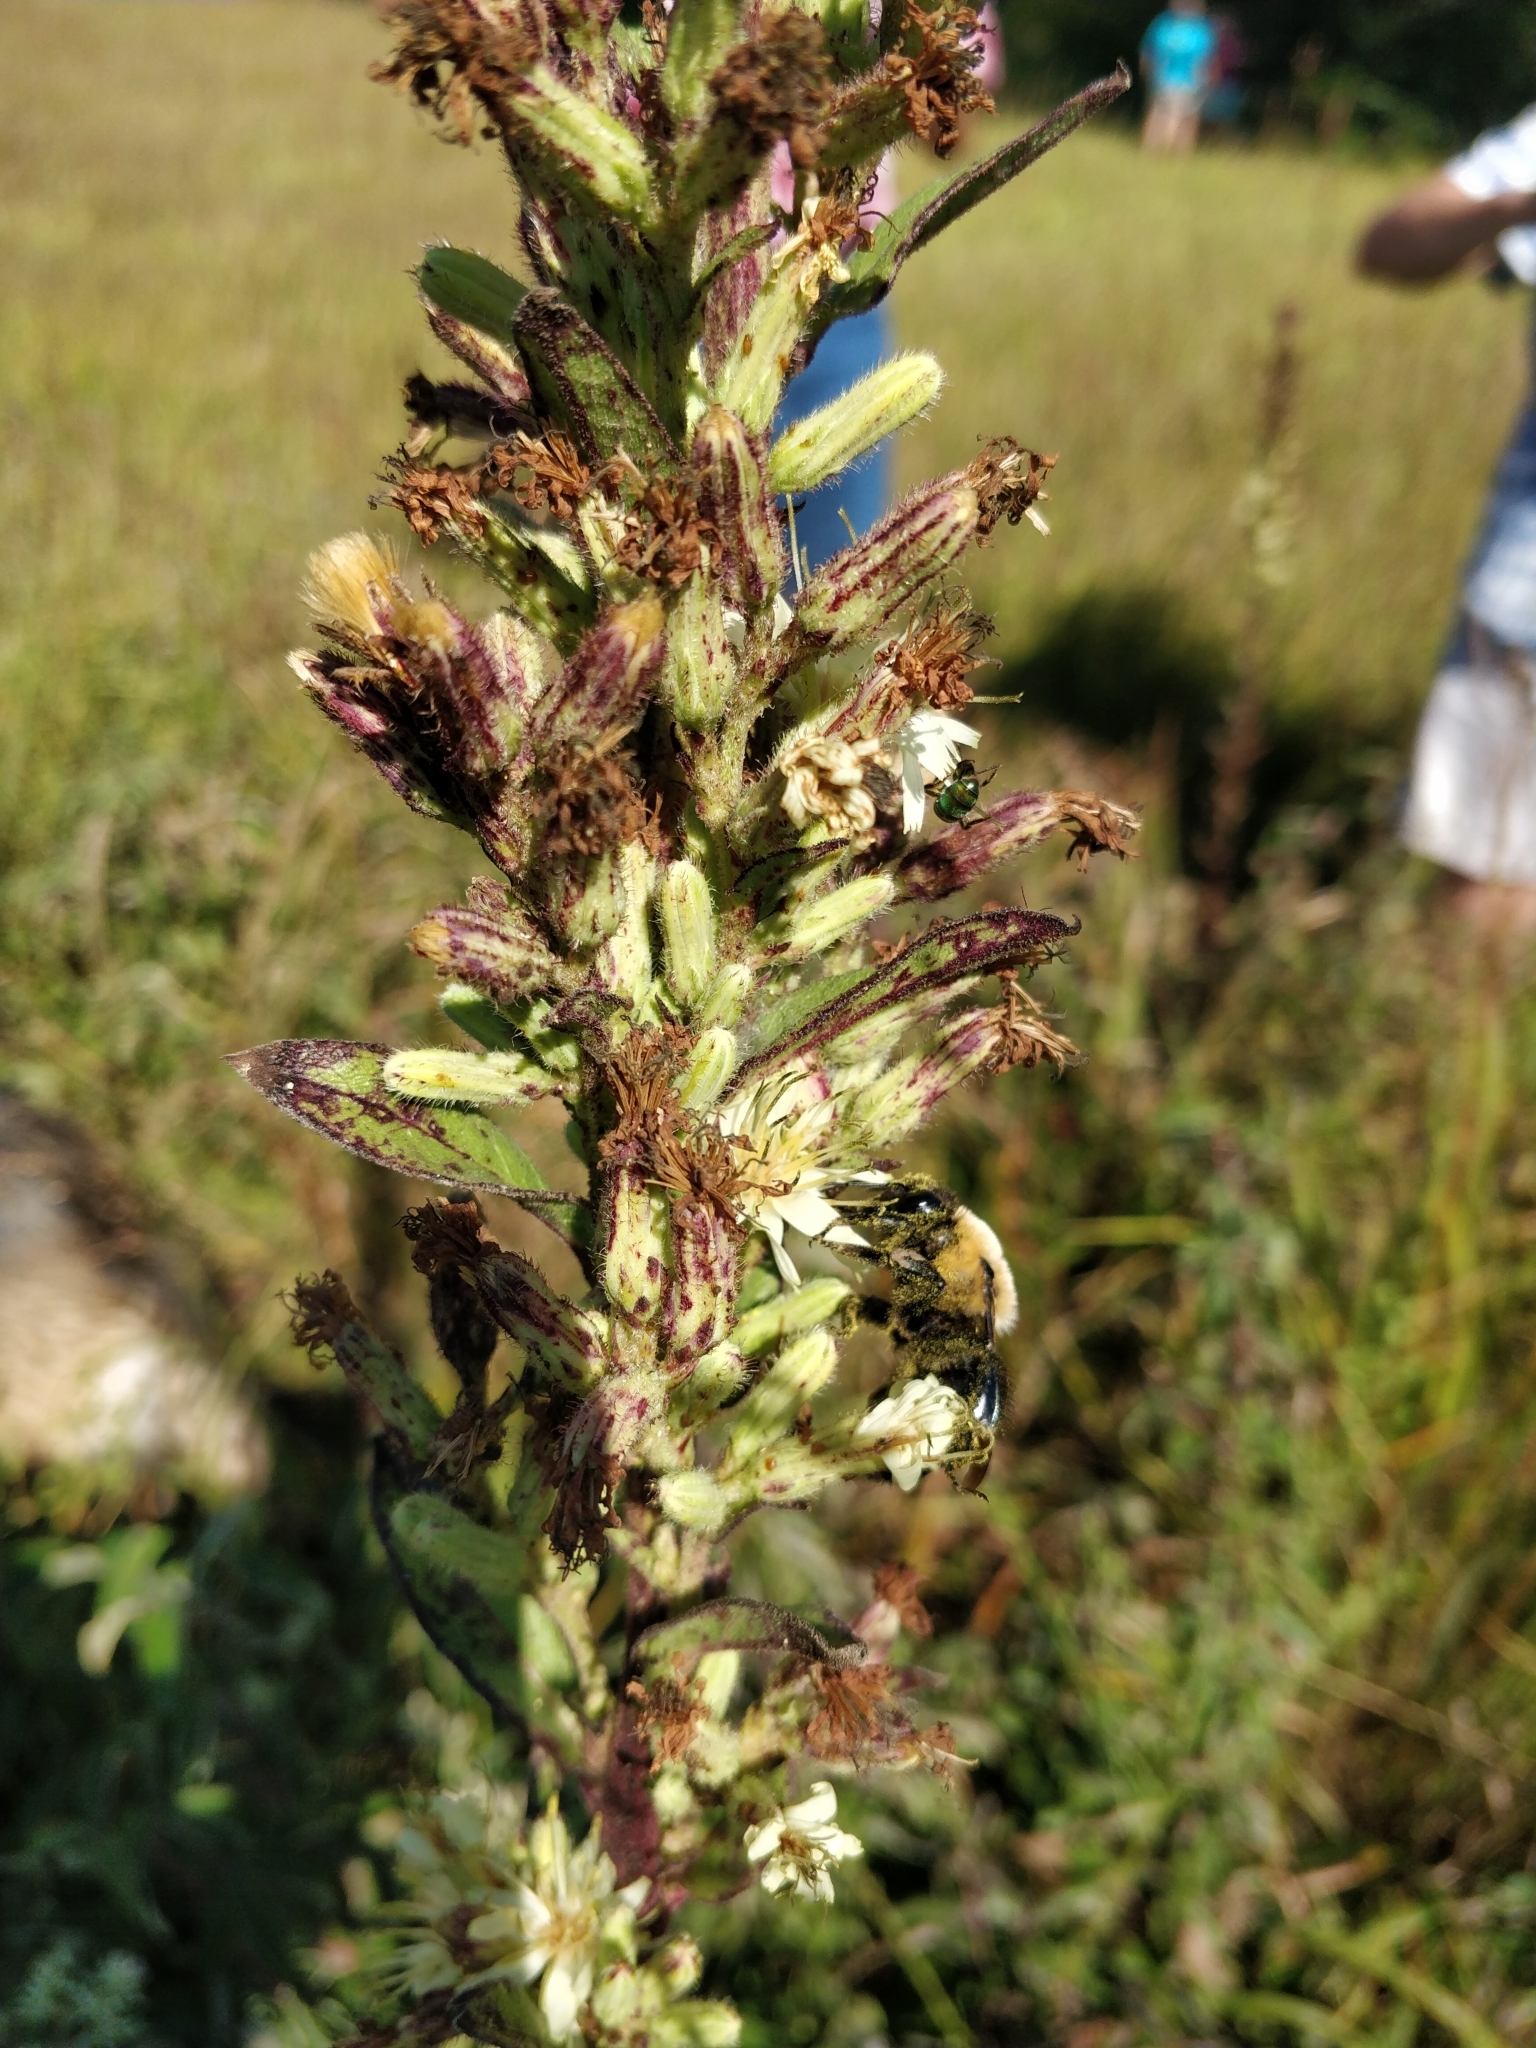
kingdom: Plantae
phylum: Tracheophyta
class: Magnoliopsida
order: Asterales
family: Asteraceae
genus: Nabalus
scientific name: Nabalus asper
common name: Rough rattlesnakeroot
